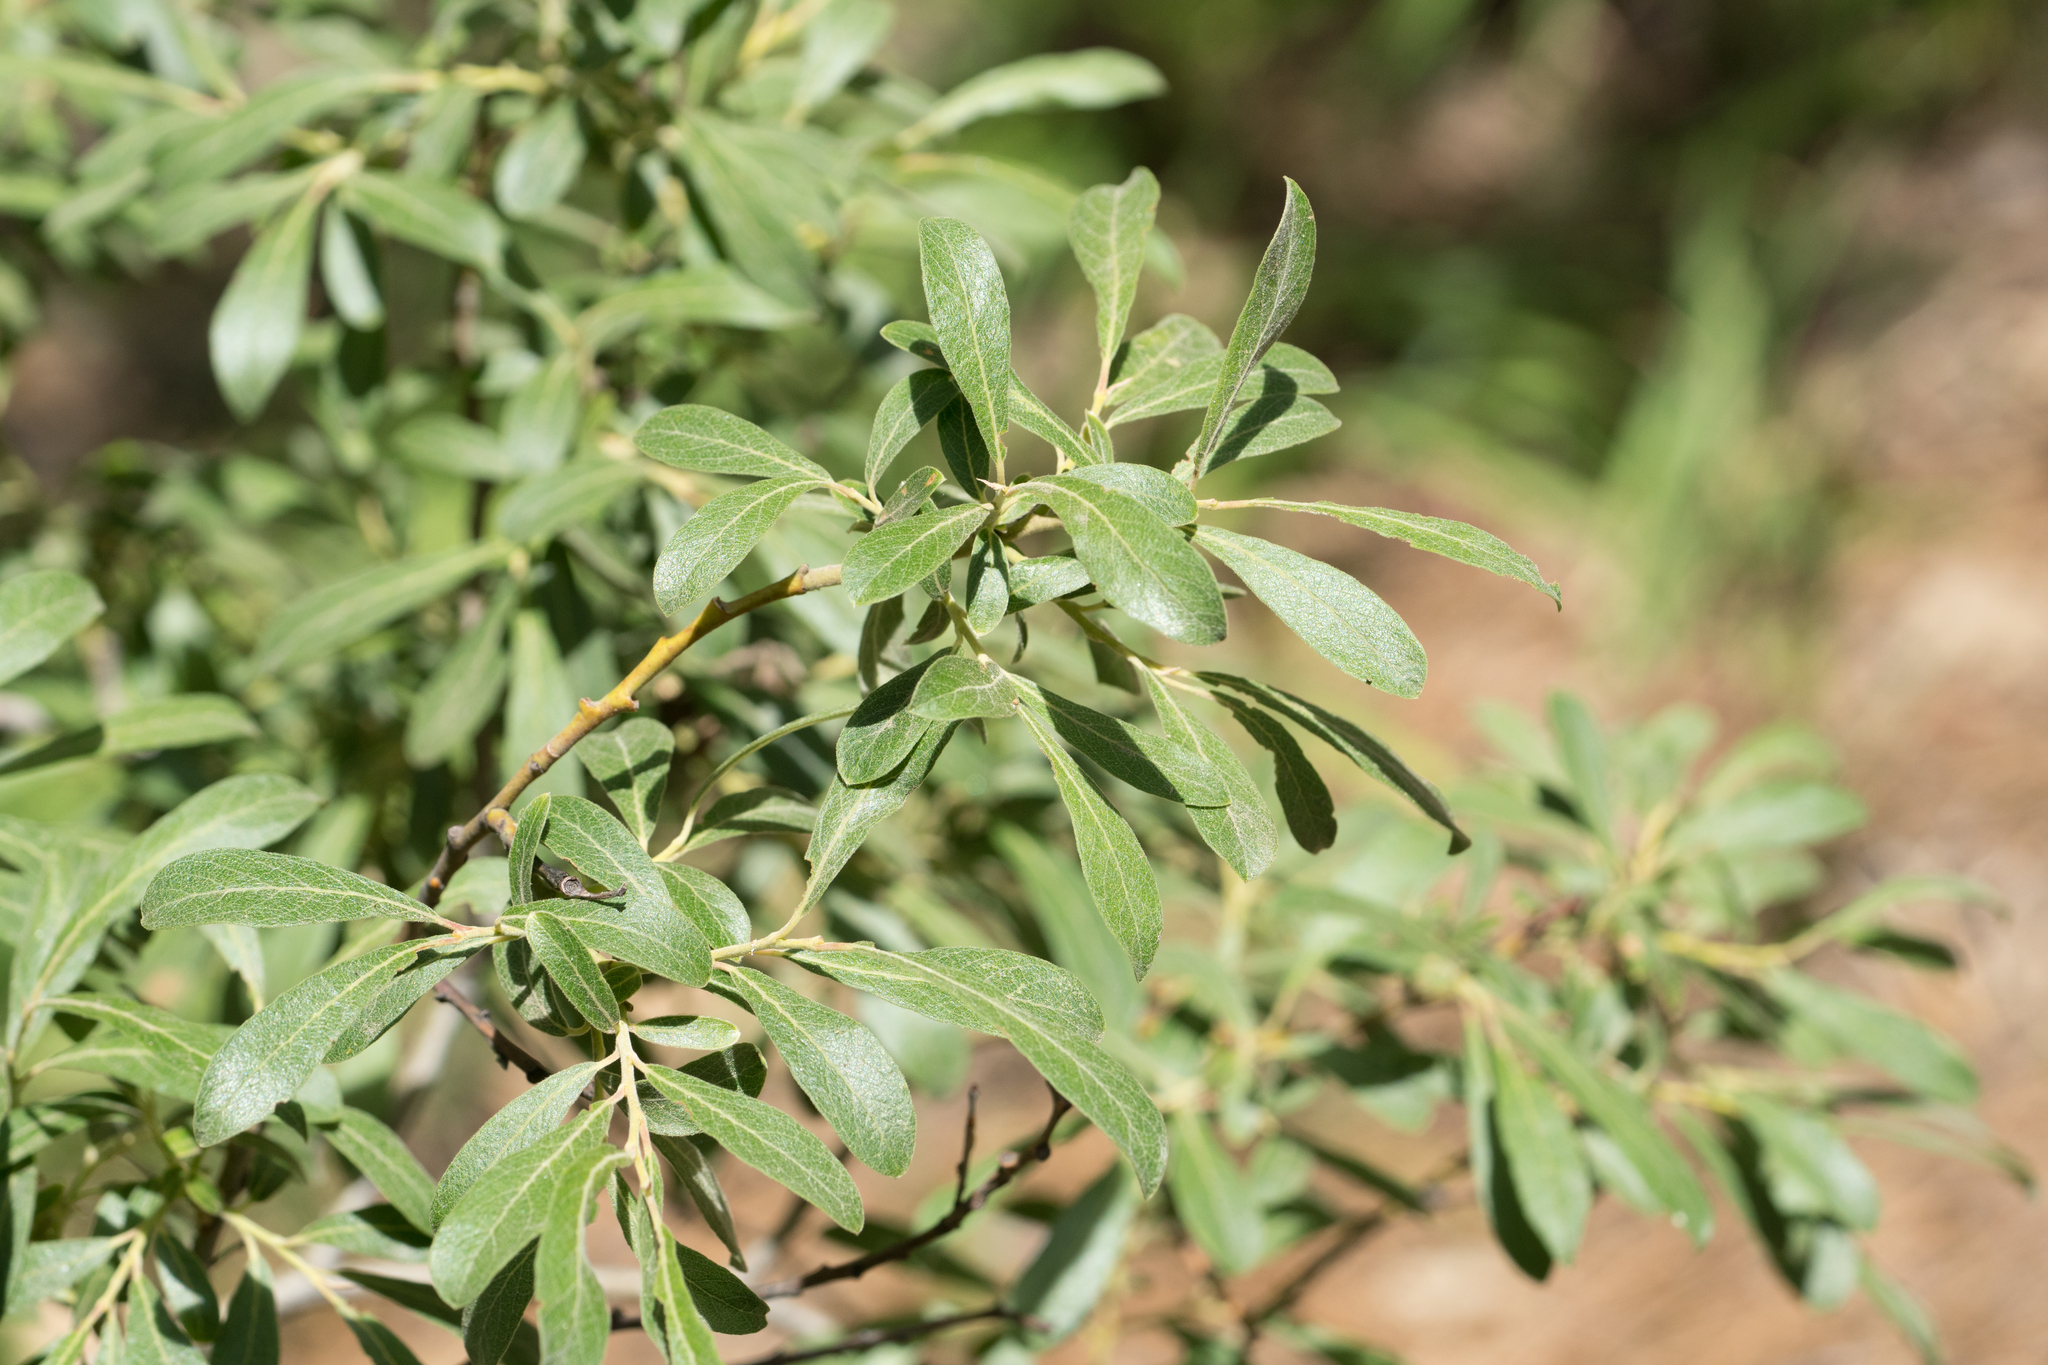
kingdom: Plantae
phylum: Tracheophyta
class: Magnoliopsida
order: Malpighiales
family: Salicaceae
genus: Salix
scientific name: Salix scouleriana
